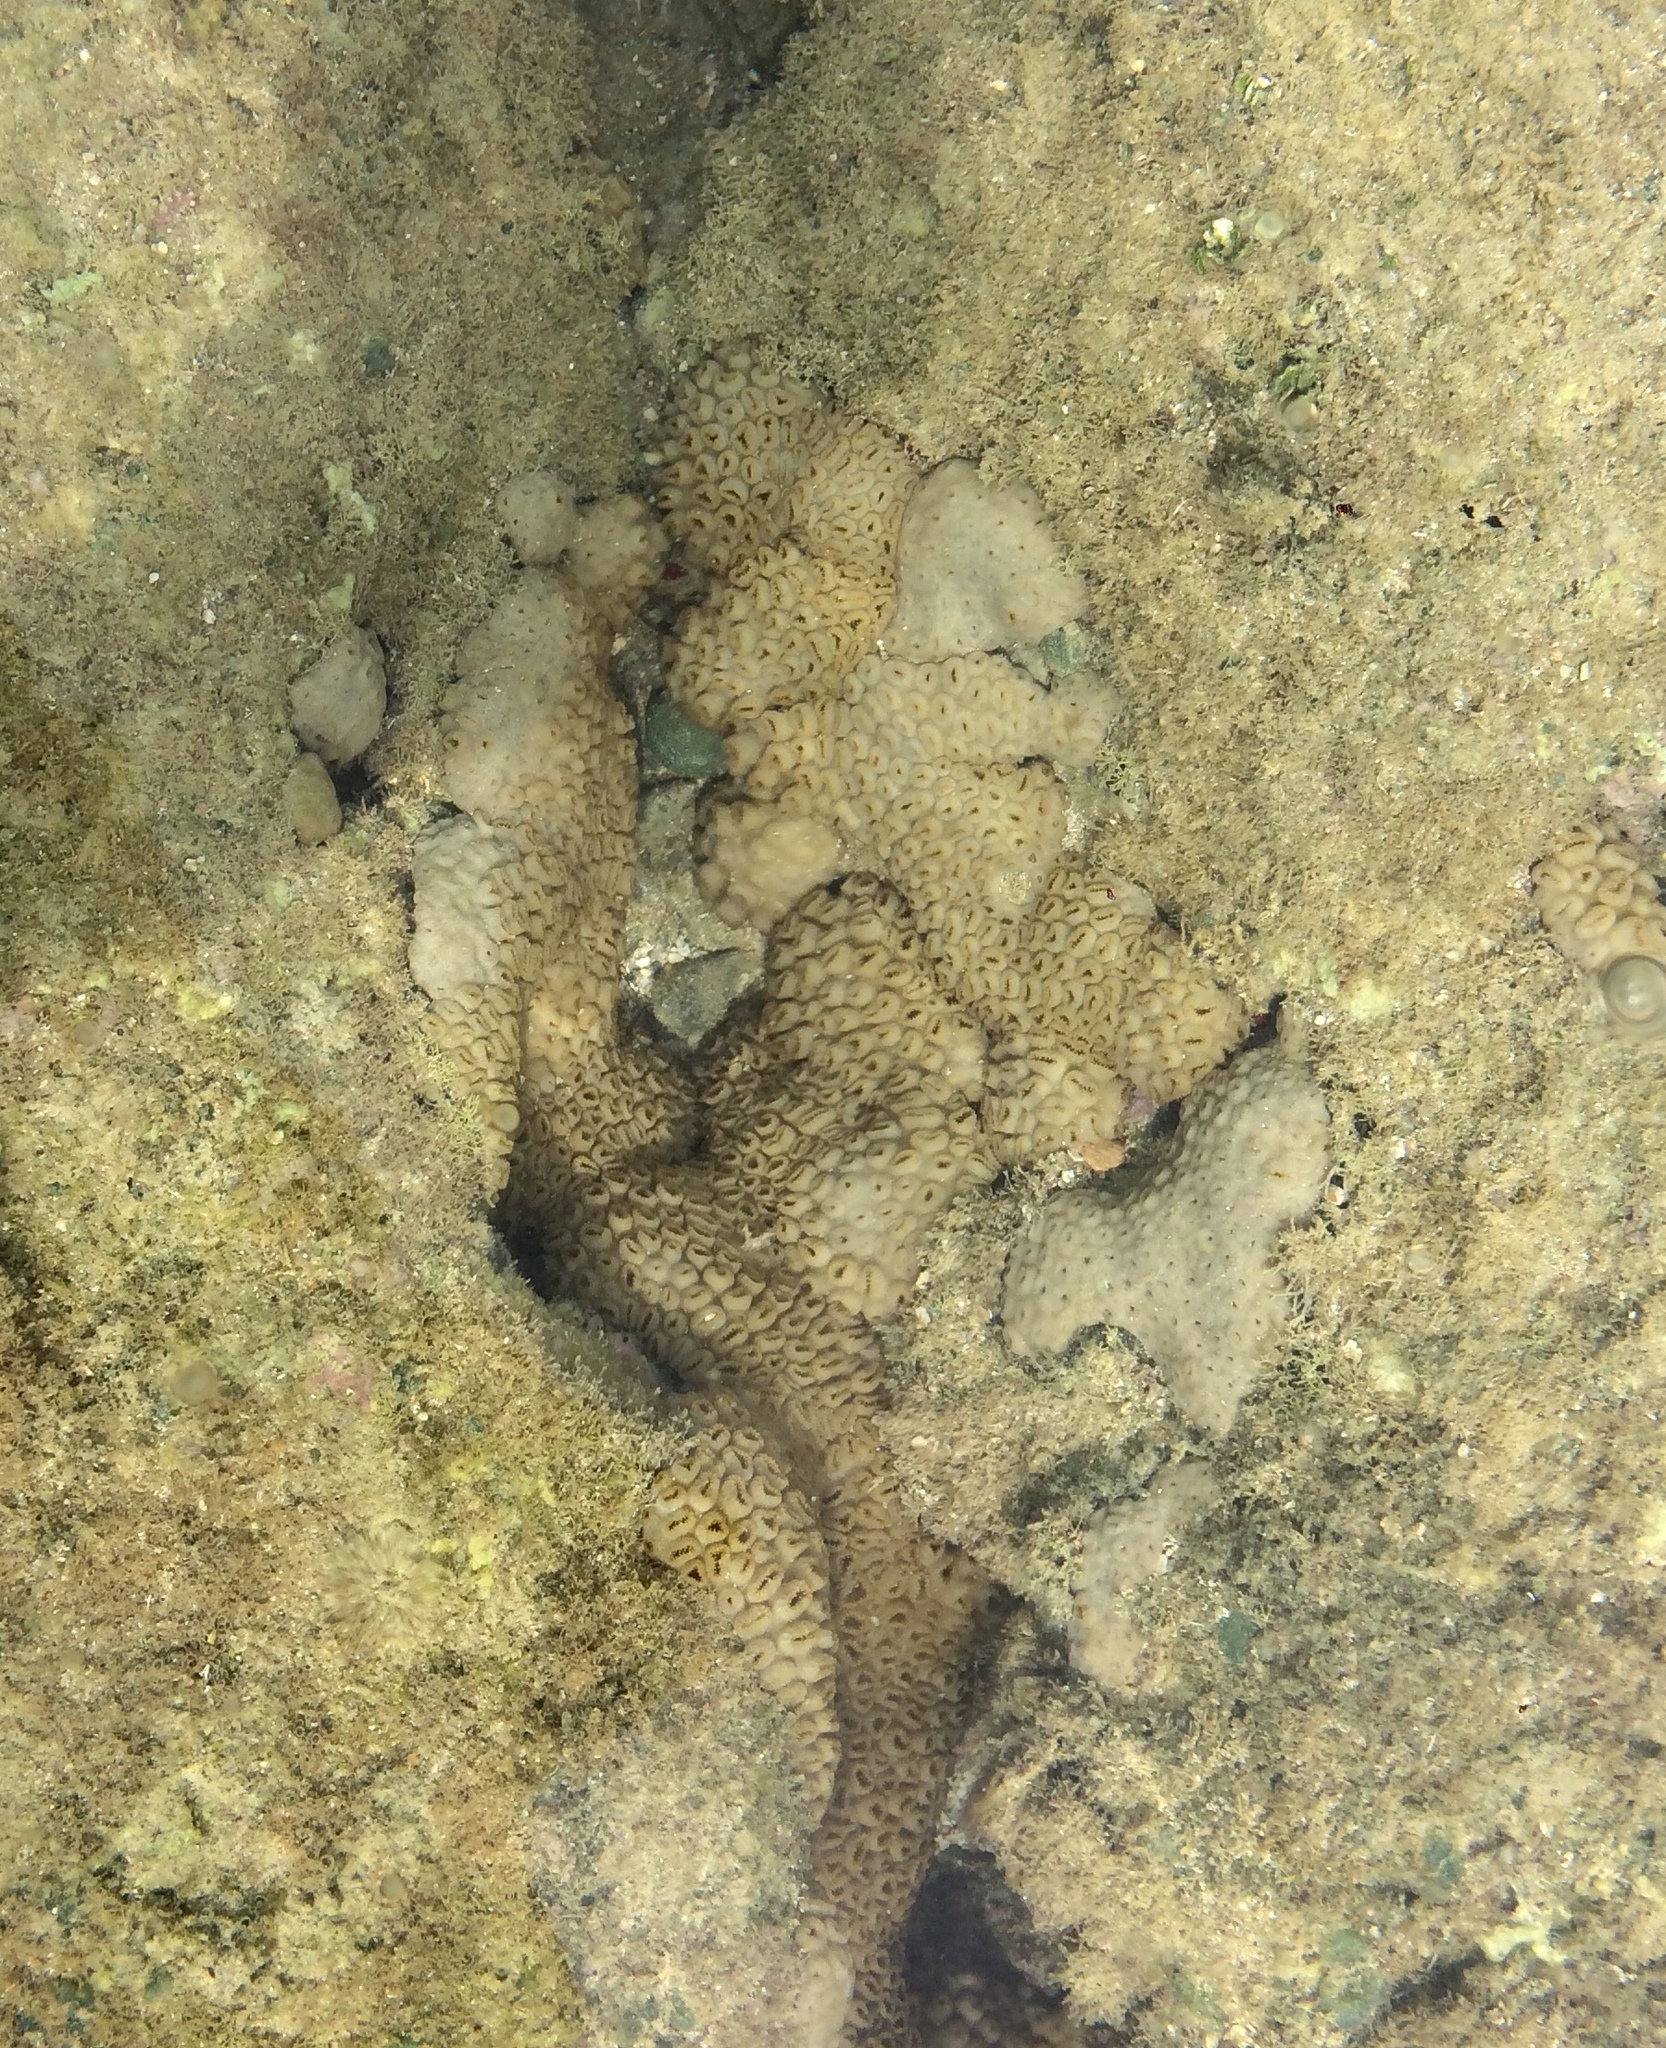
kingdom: Animalia
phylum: Cnidaria
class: Anthozoa
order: Zoantharia
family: Sphenopidae
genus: Palythoa
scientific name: Palythoa caribaeorum
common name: Encrusting colonial anemone
